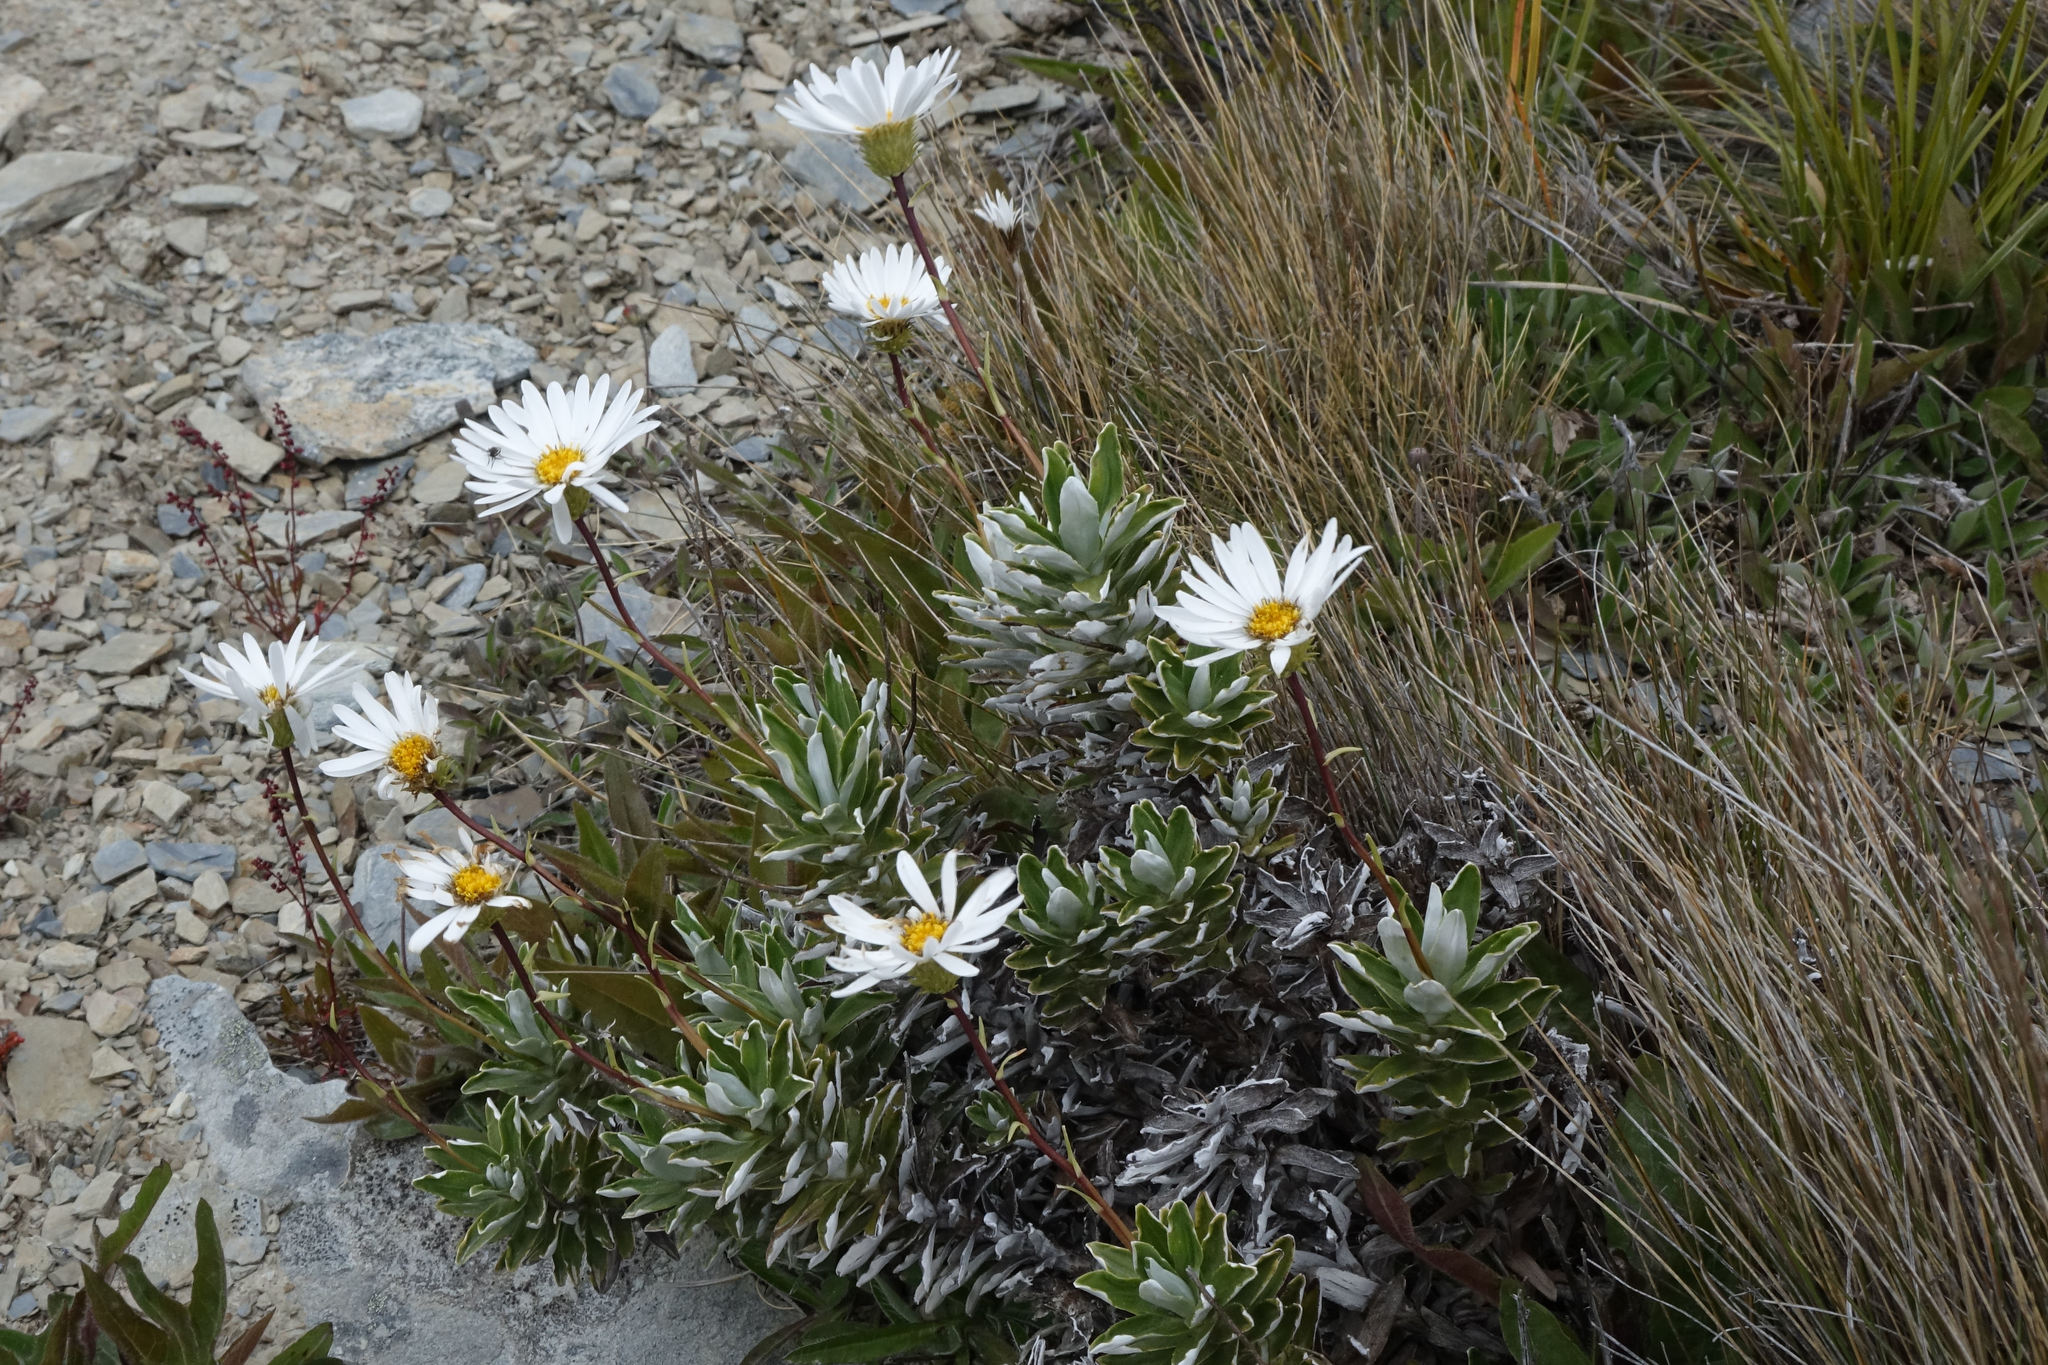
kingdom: Plantae
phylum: Tracheophyta
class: Magnoliopsida
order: Asterales
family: Asteraceae
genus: Celmisia
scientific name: Celmisia angustifolia
